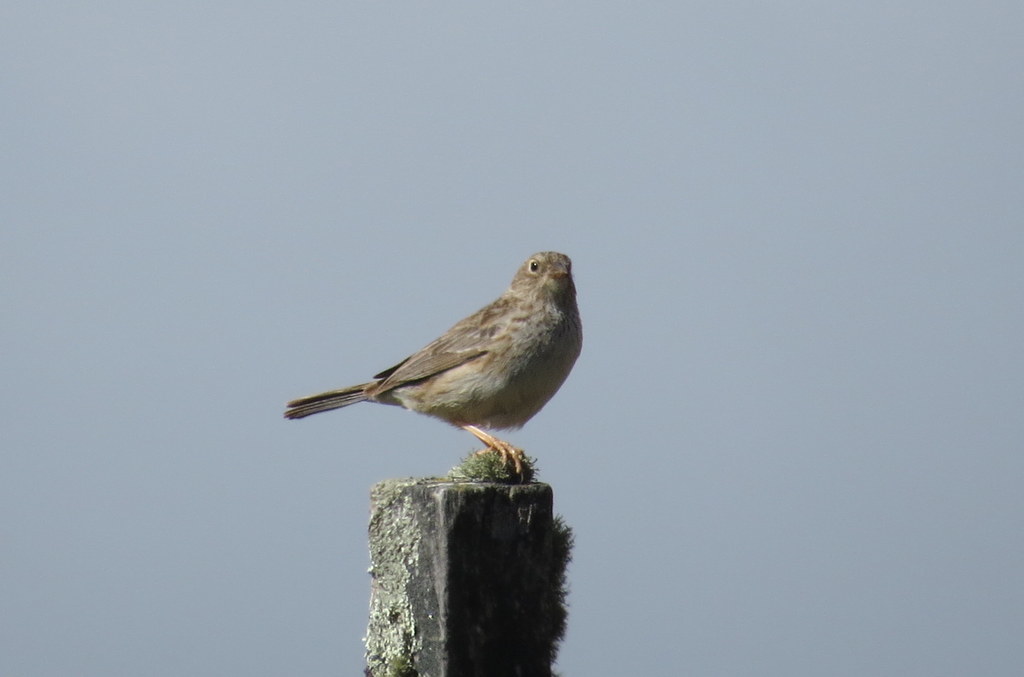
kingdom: Animalia
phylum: Chordata
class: Aves
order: Passeriformes
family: Thraupidae
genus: Porphyrospiza
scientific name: Porphyrospiza alaudina
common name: Band-tailed sierra finch
